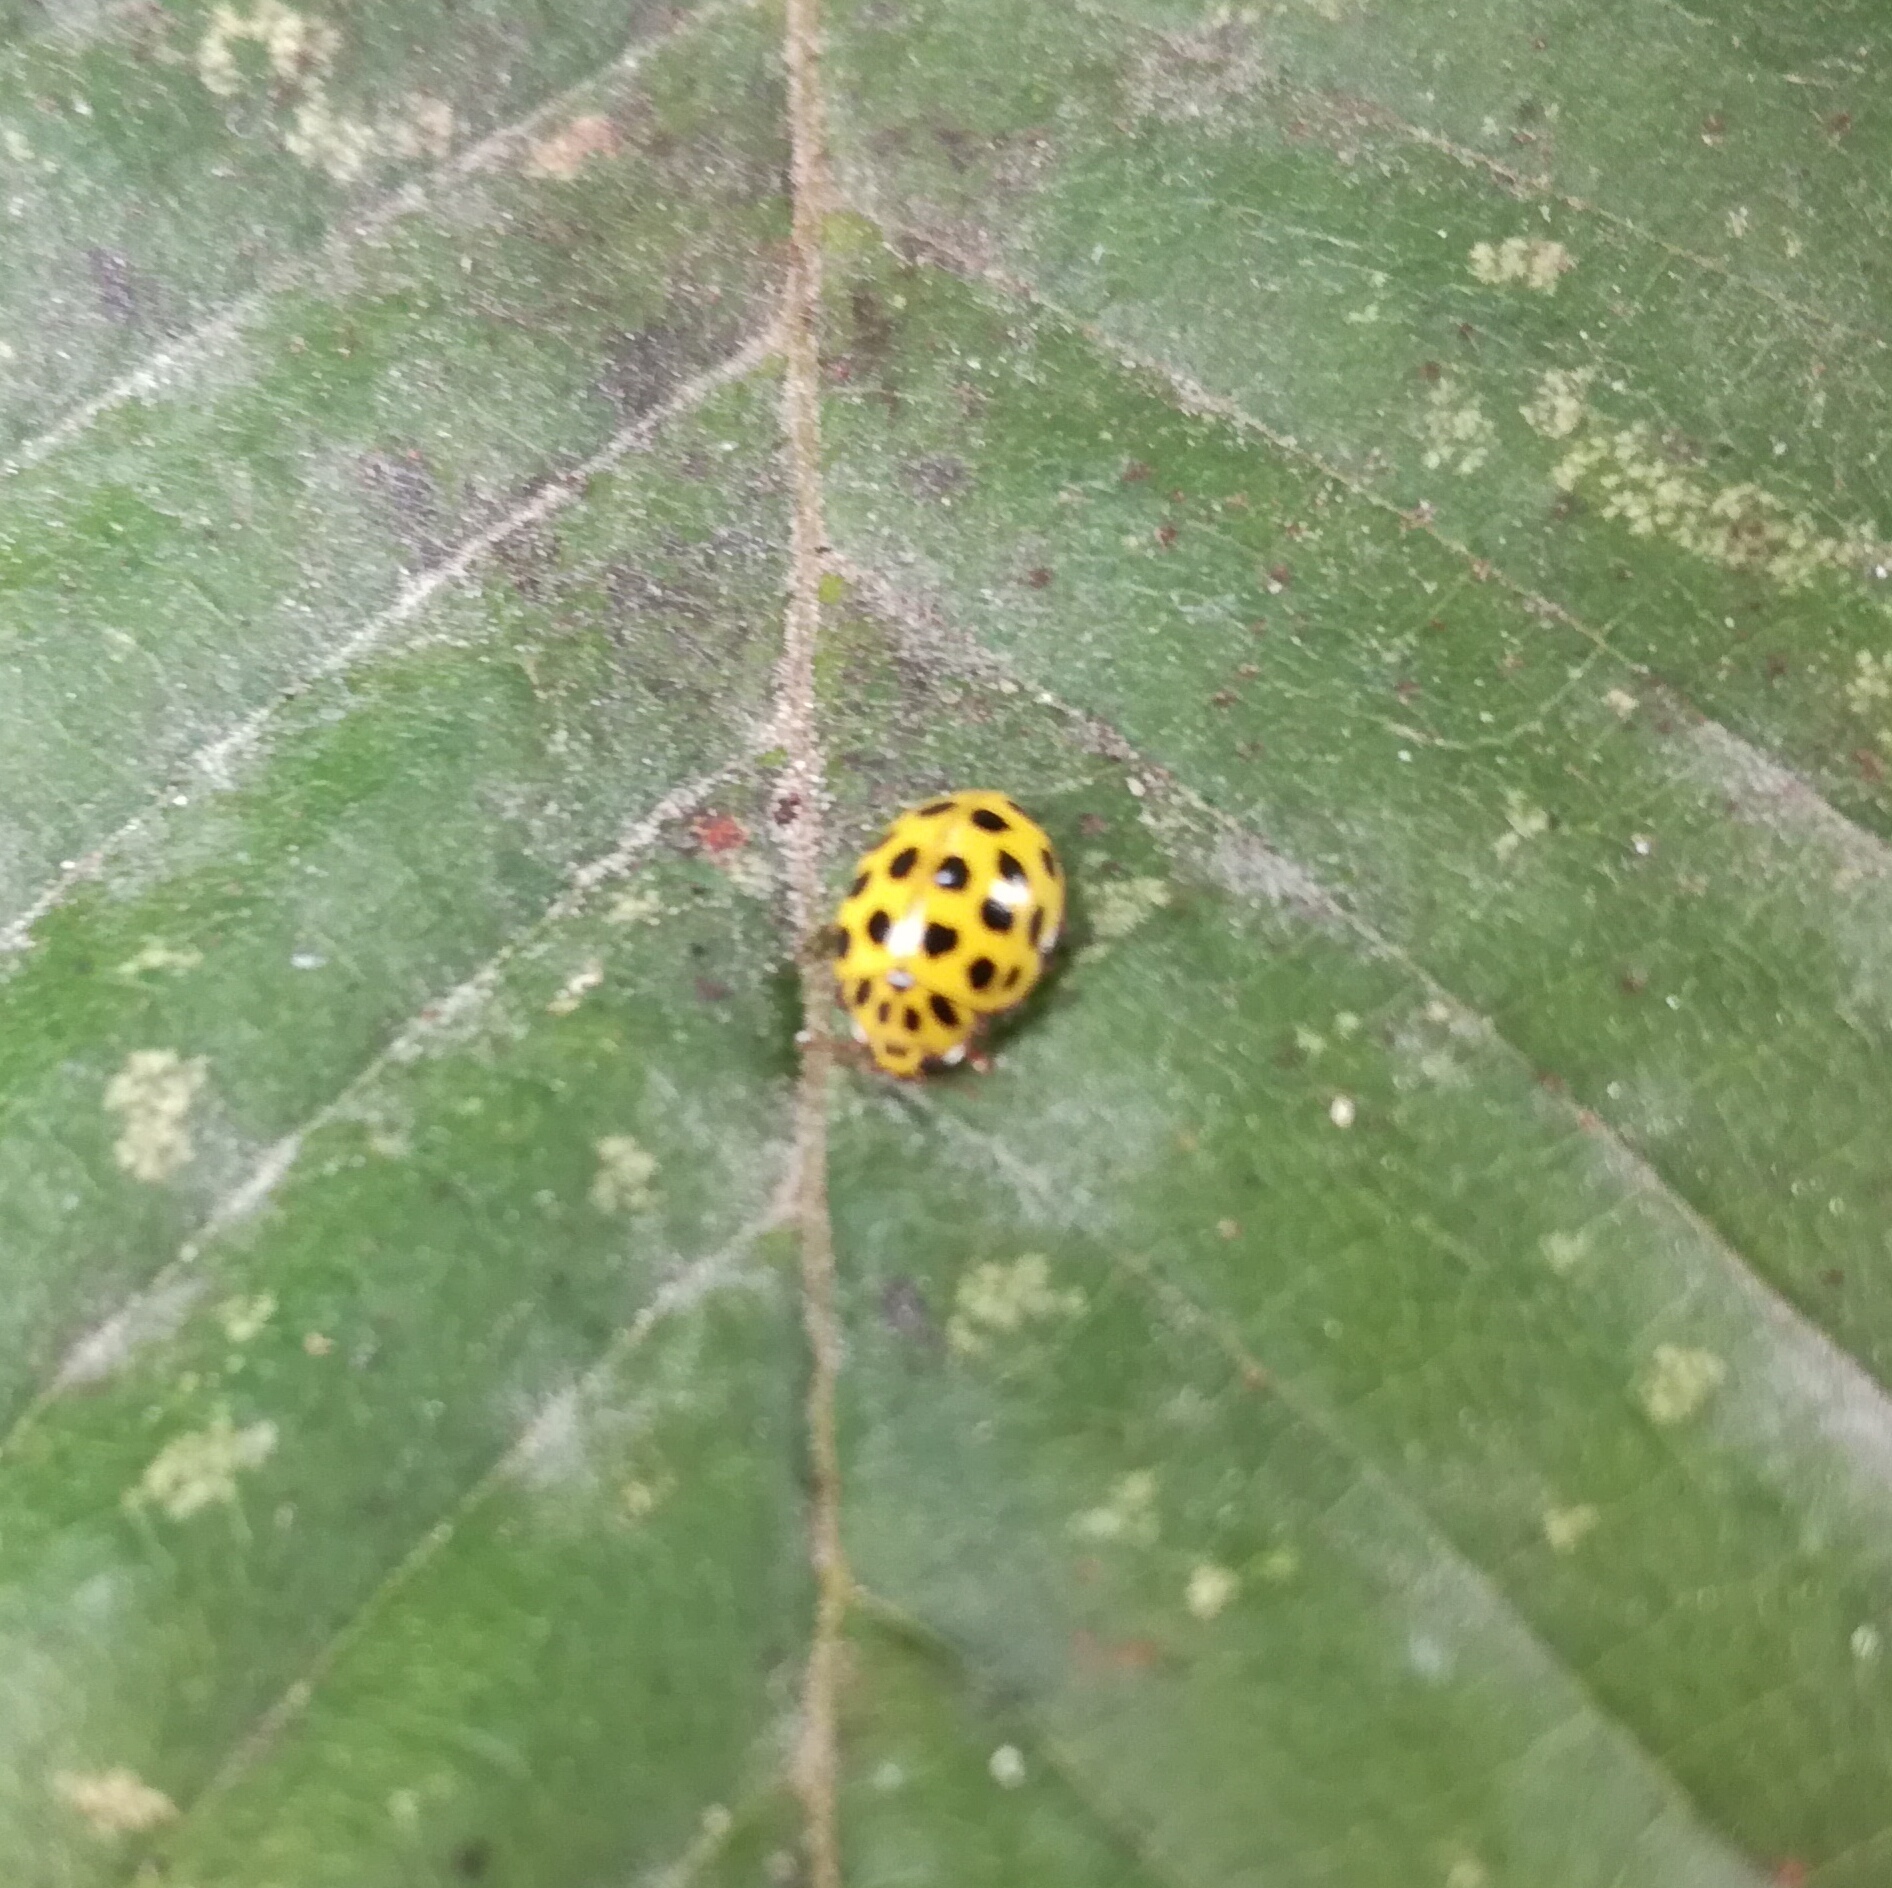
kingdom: Animalia
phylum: Arthropoda
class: Insecta
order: Coleoptera
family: Coccinellidae
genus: Psyllobora
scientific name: Psyllobora vigintiduopunctata
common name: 22-spot ladybird
